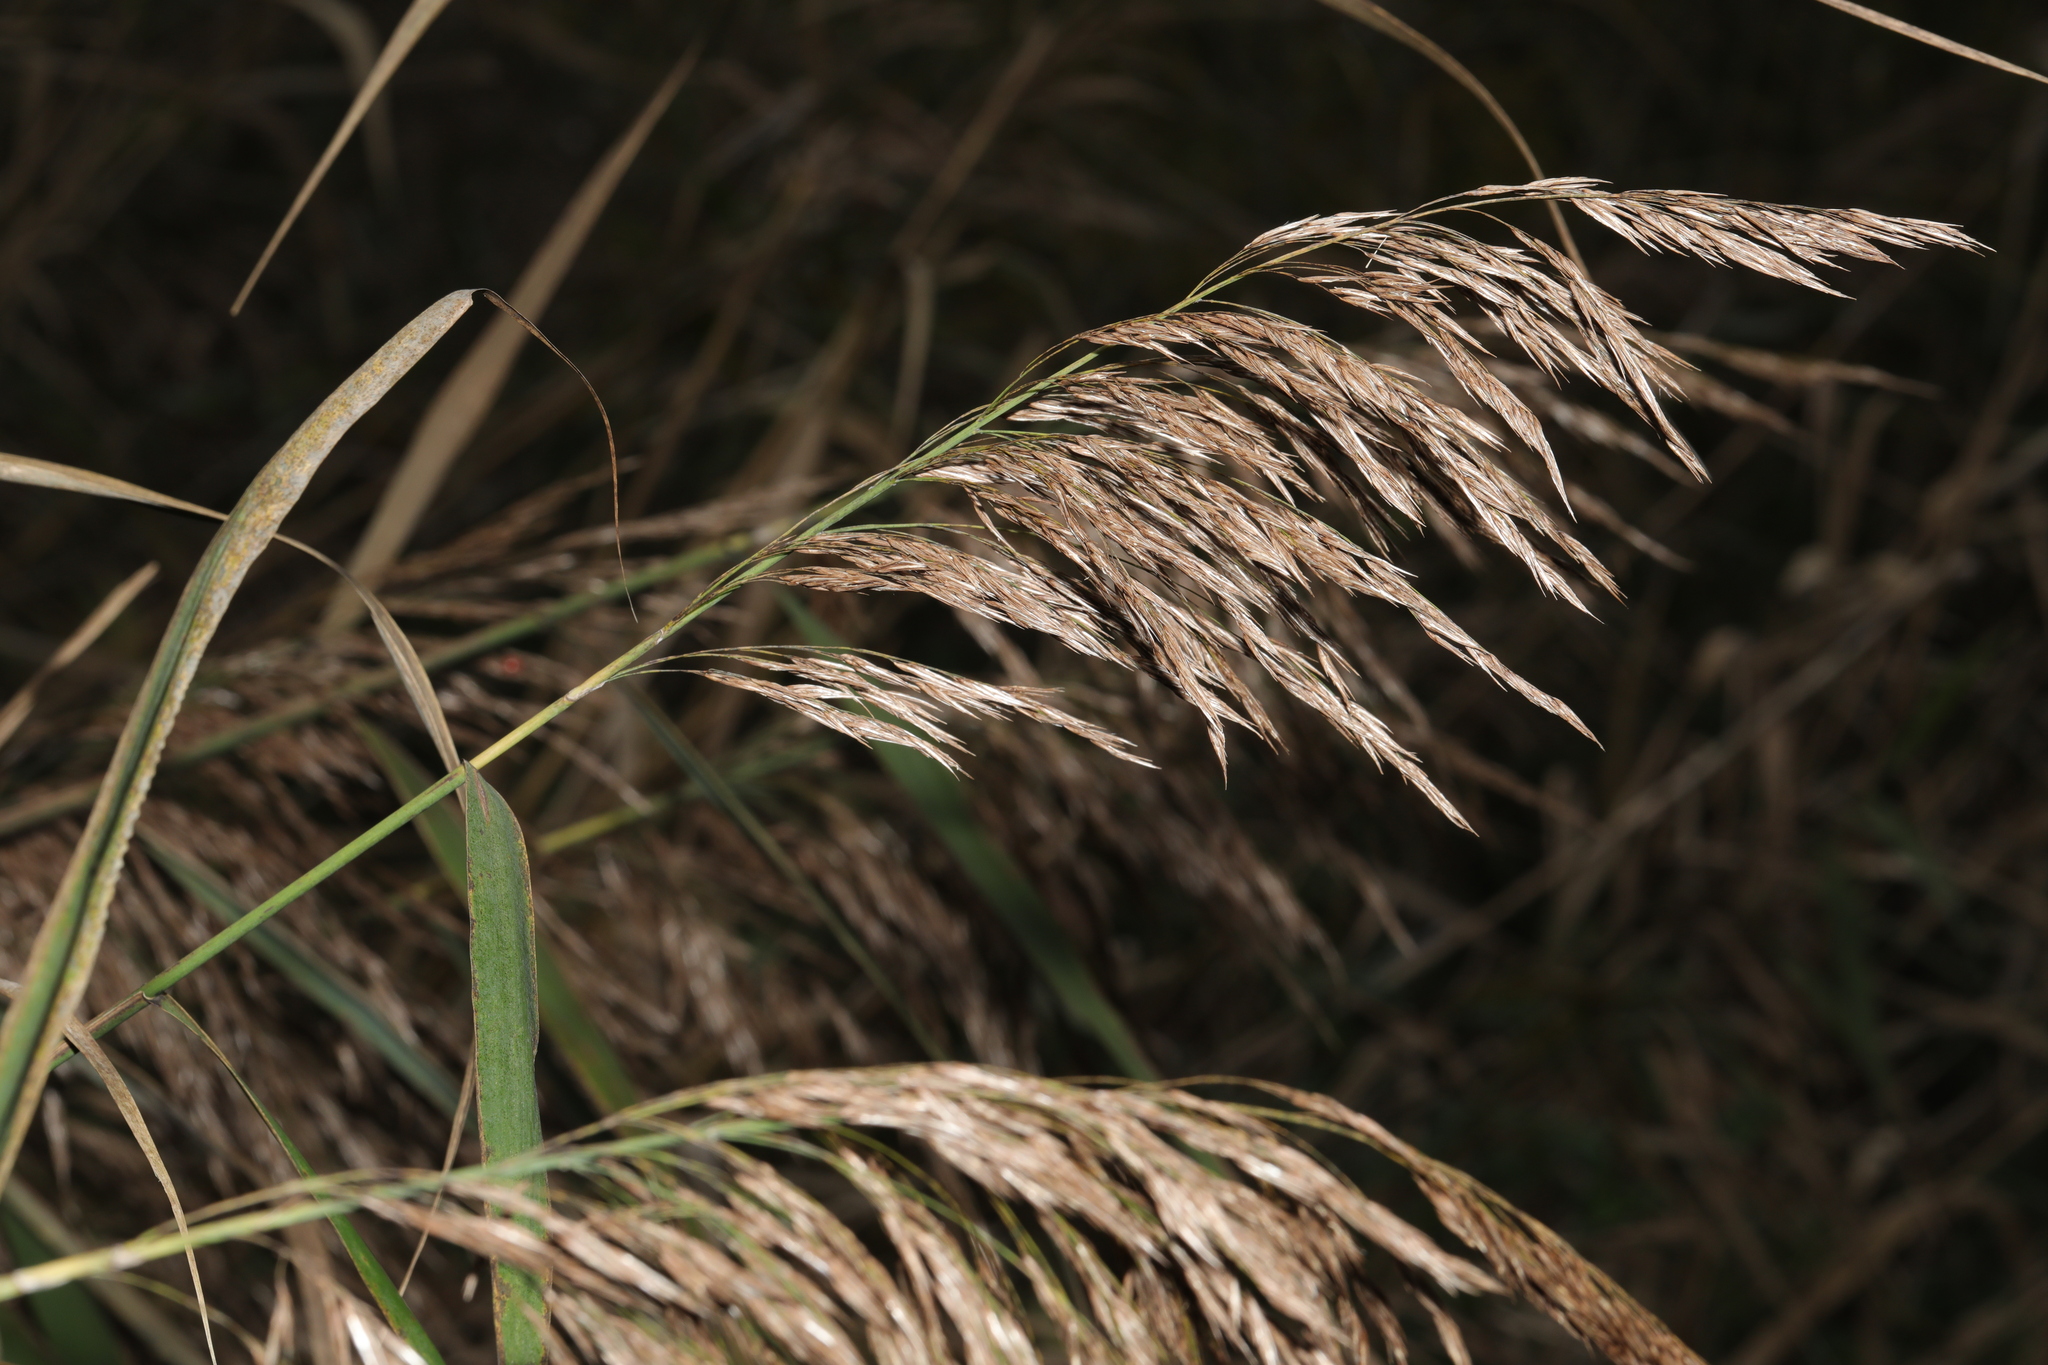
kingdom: Plantae
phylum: Tracheophyta
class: Liliopsida
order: Poales
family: Poaceae
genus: Phragmites
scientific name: Phragmites australis
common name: Common reed
